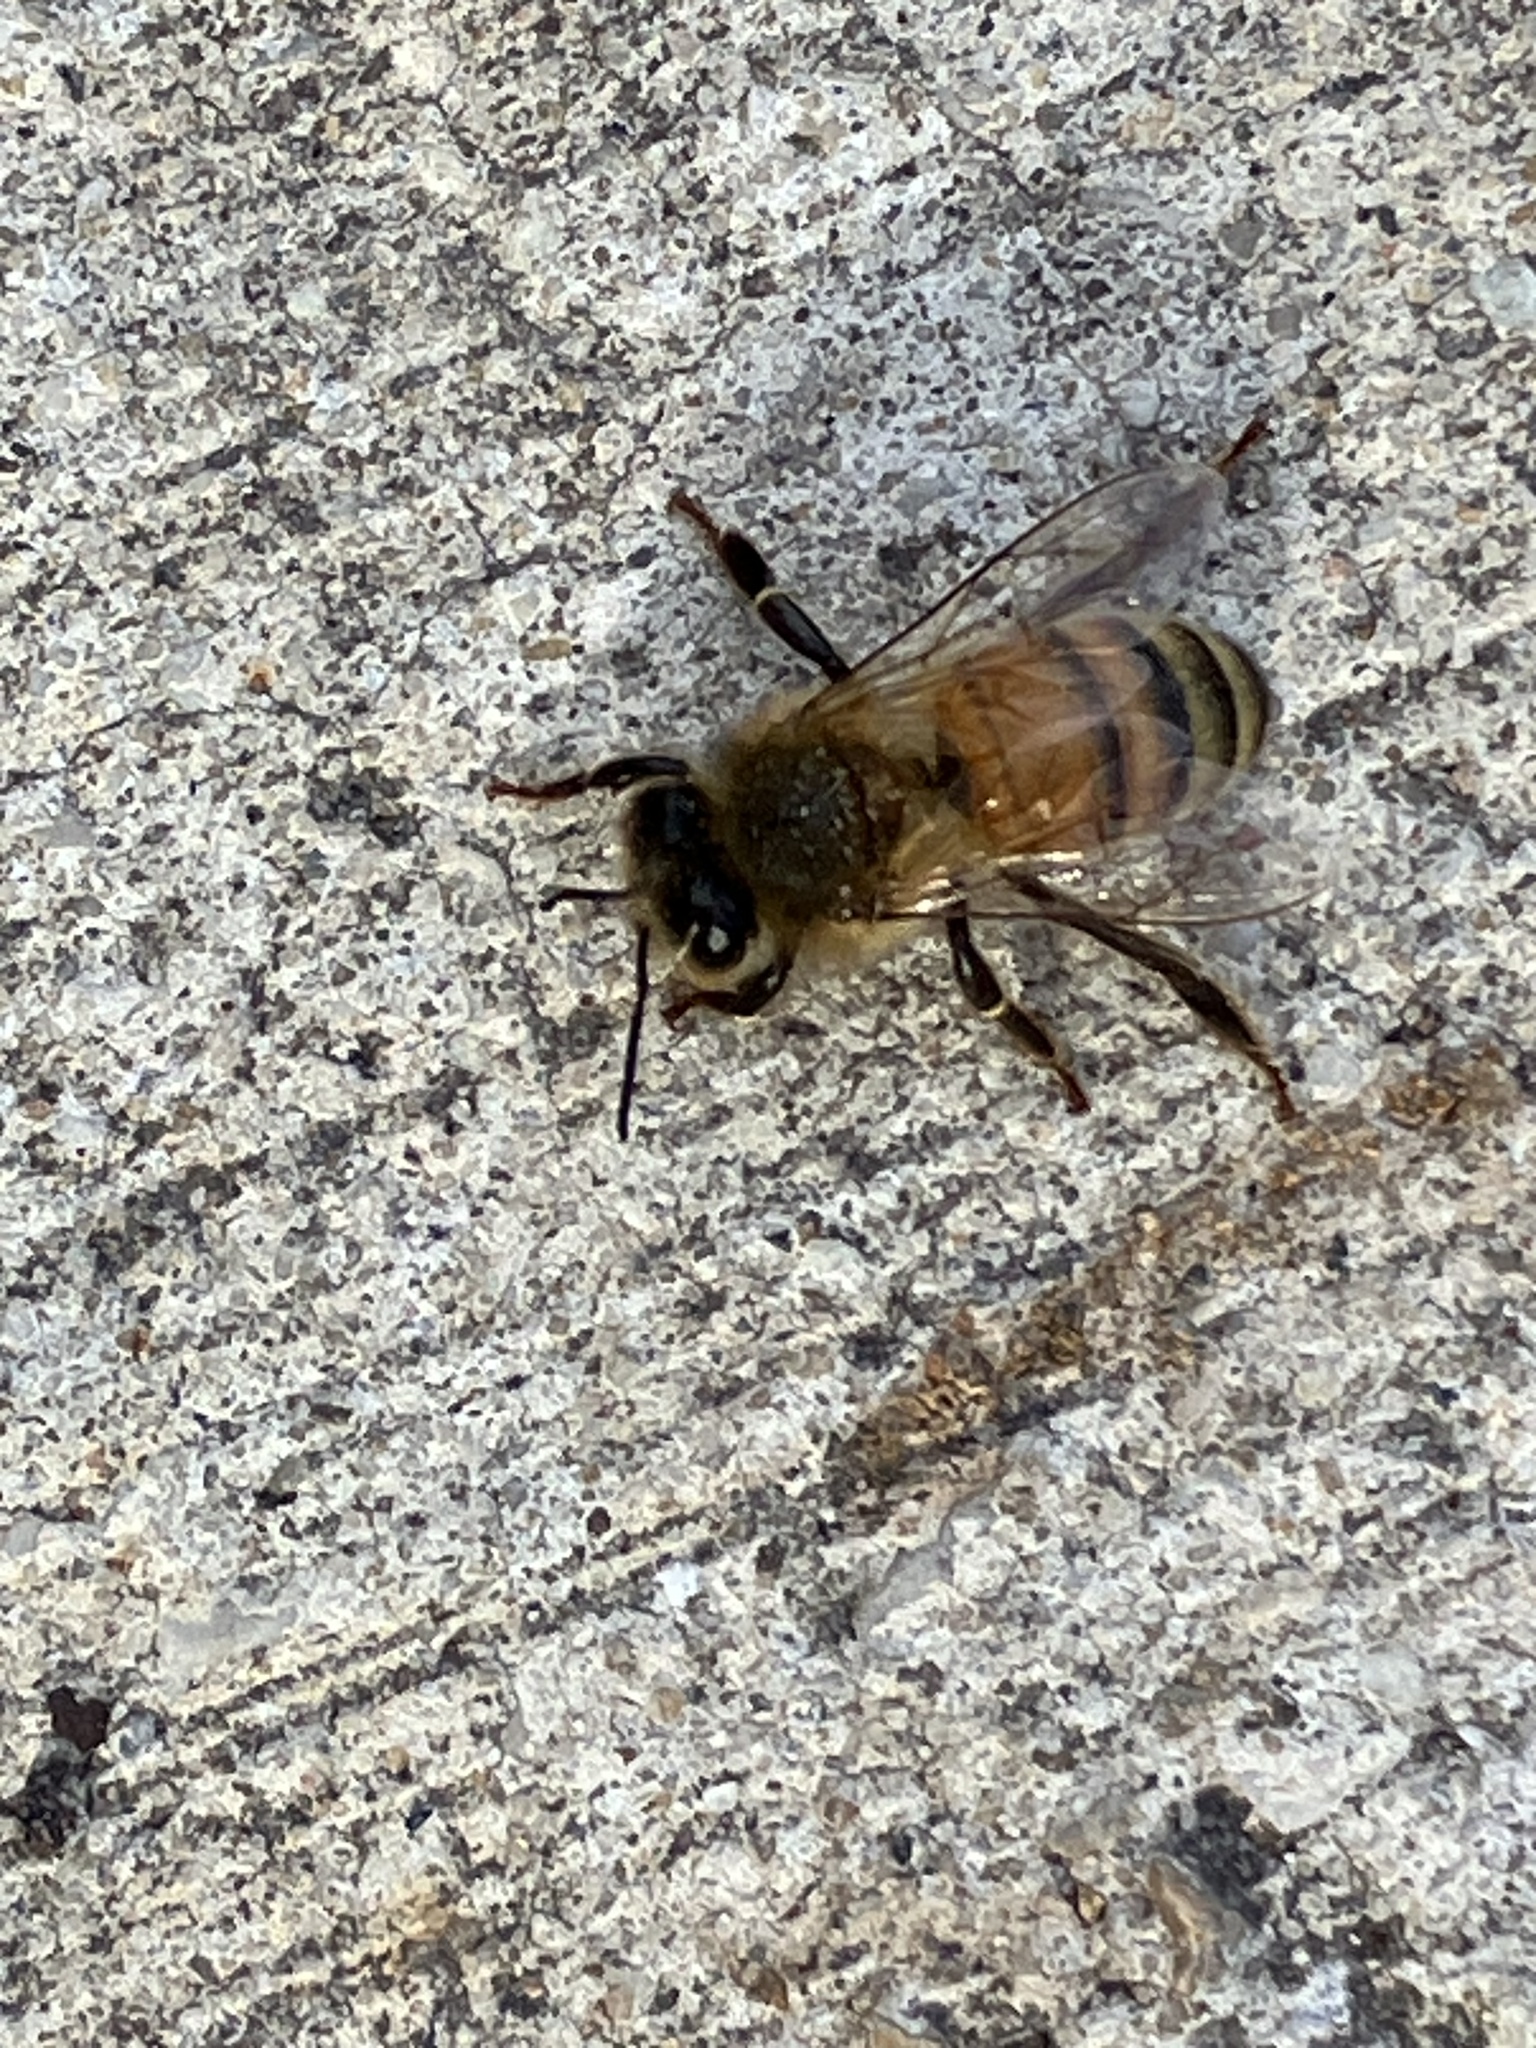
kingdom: Animalia
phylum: Arthropoda
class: Insecta
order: Hymenoptera
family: Apidae
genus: Apis
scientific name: Apis mellifera
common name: Honey bee
